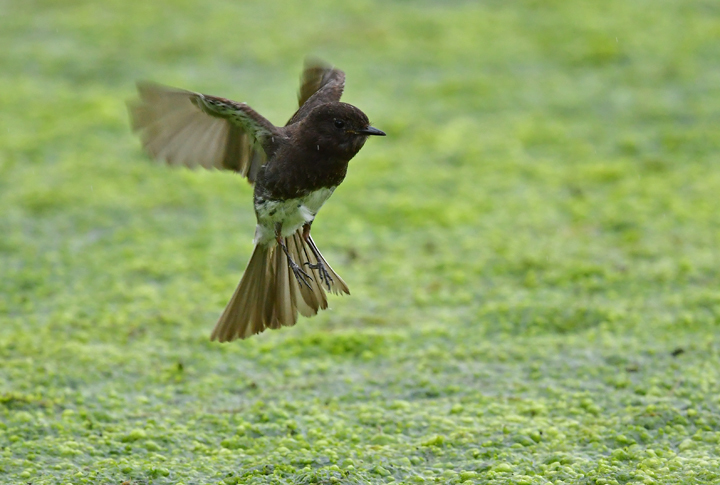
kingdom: Animalia
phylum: Chordata
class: Aves
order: Passeriformes
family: Tyrannidae
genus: Sayornis
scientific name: Sayornis nigricans
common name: Black phoebe
